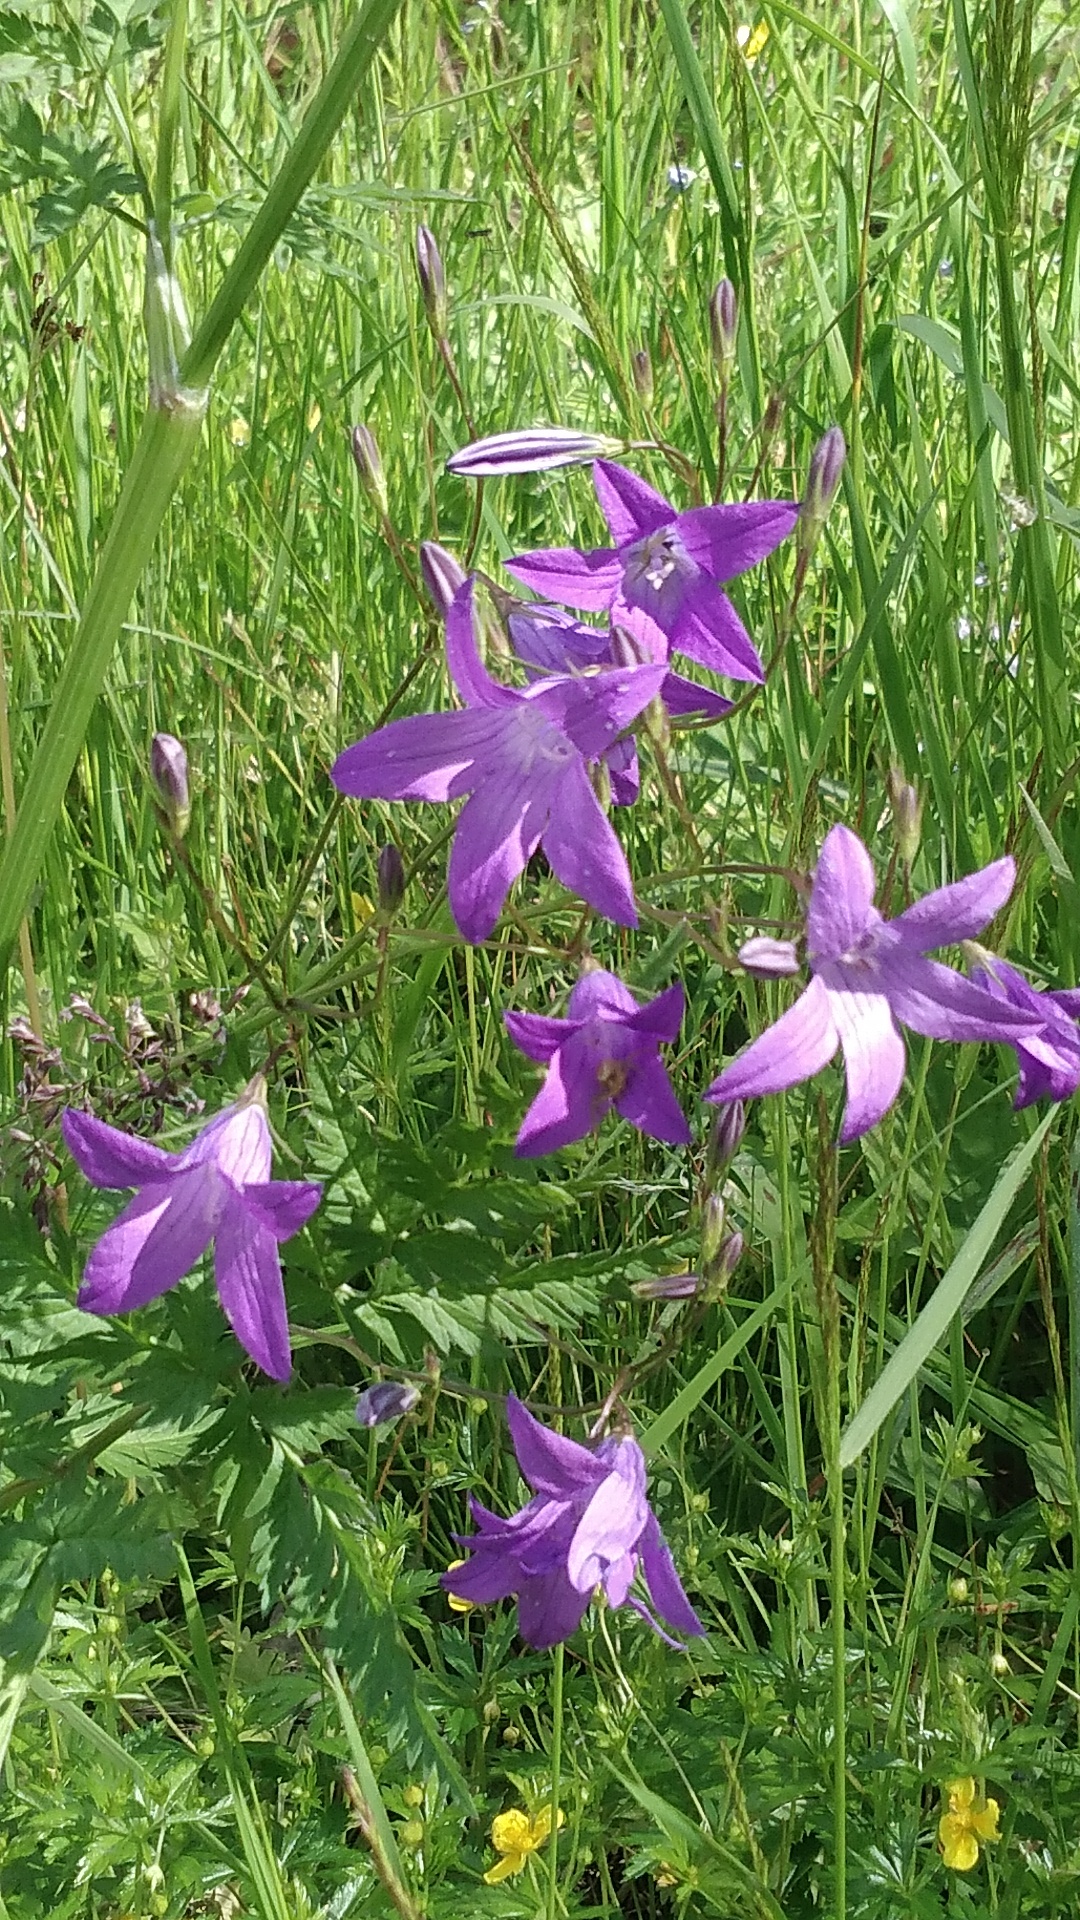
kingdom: Plantae
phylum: Tracheophyta
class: Magnoliopsida
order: Asterales
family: Campanulaceae
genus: Campanula
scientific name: Campanula patula
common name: Spreading bellflower
